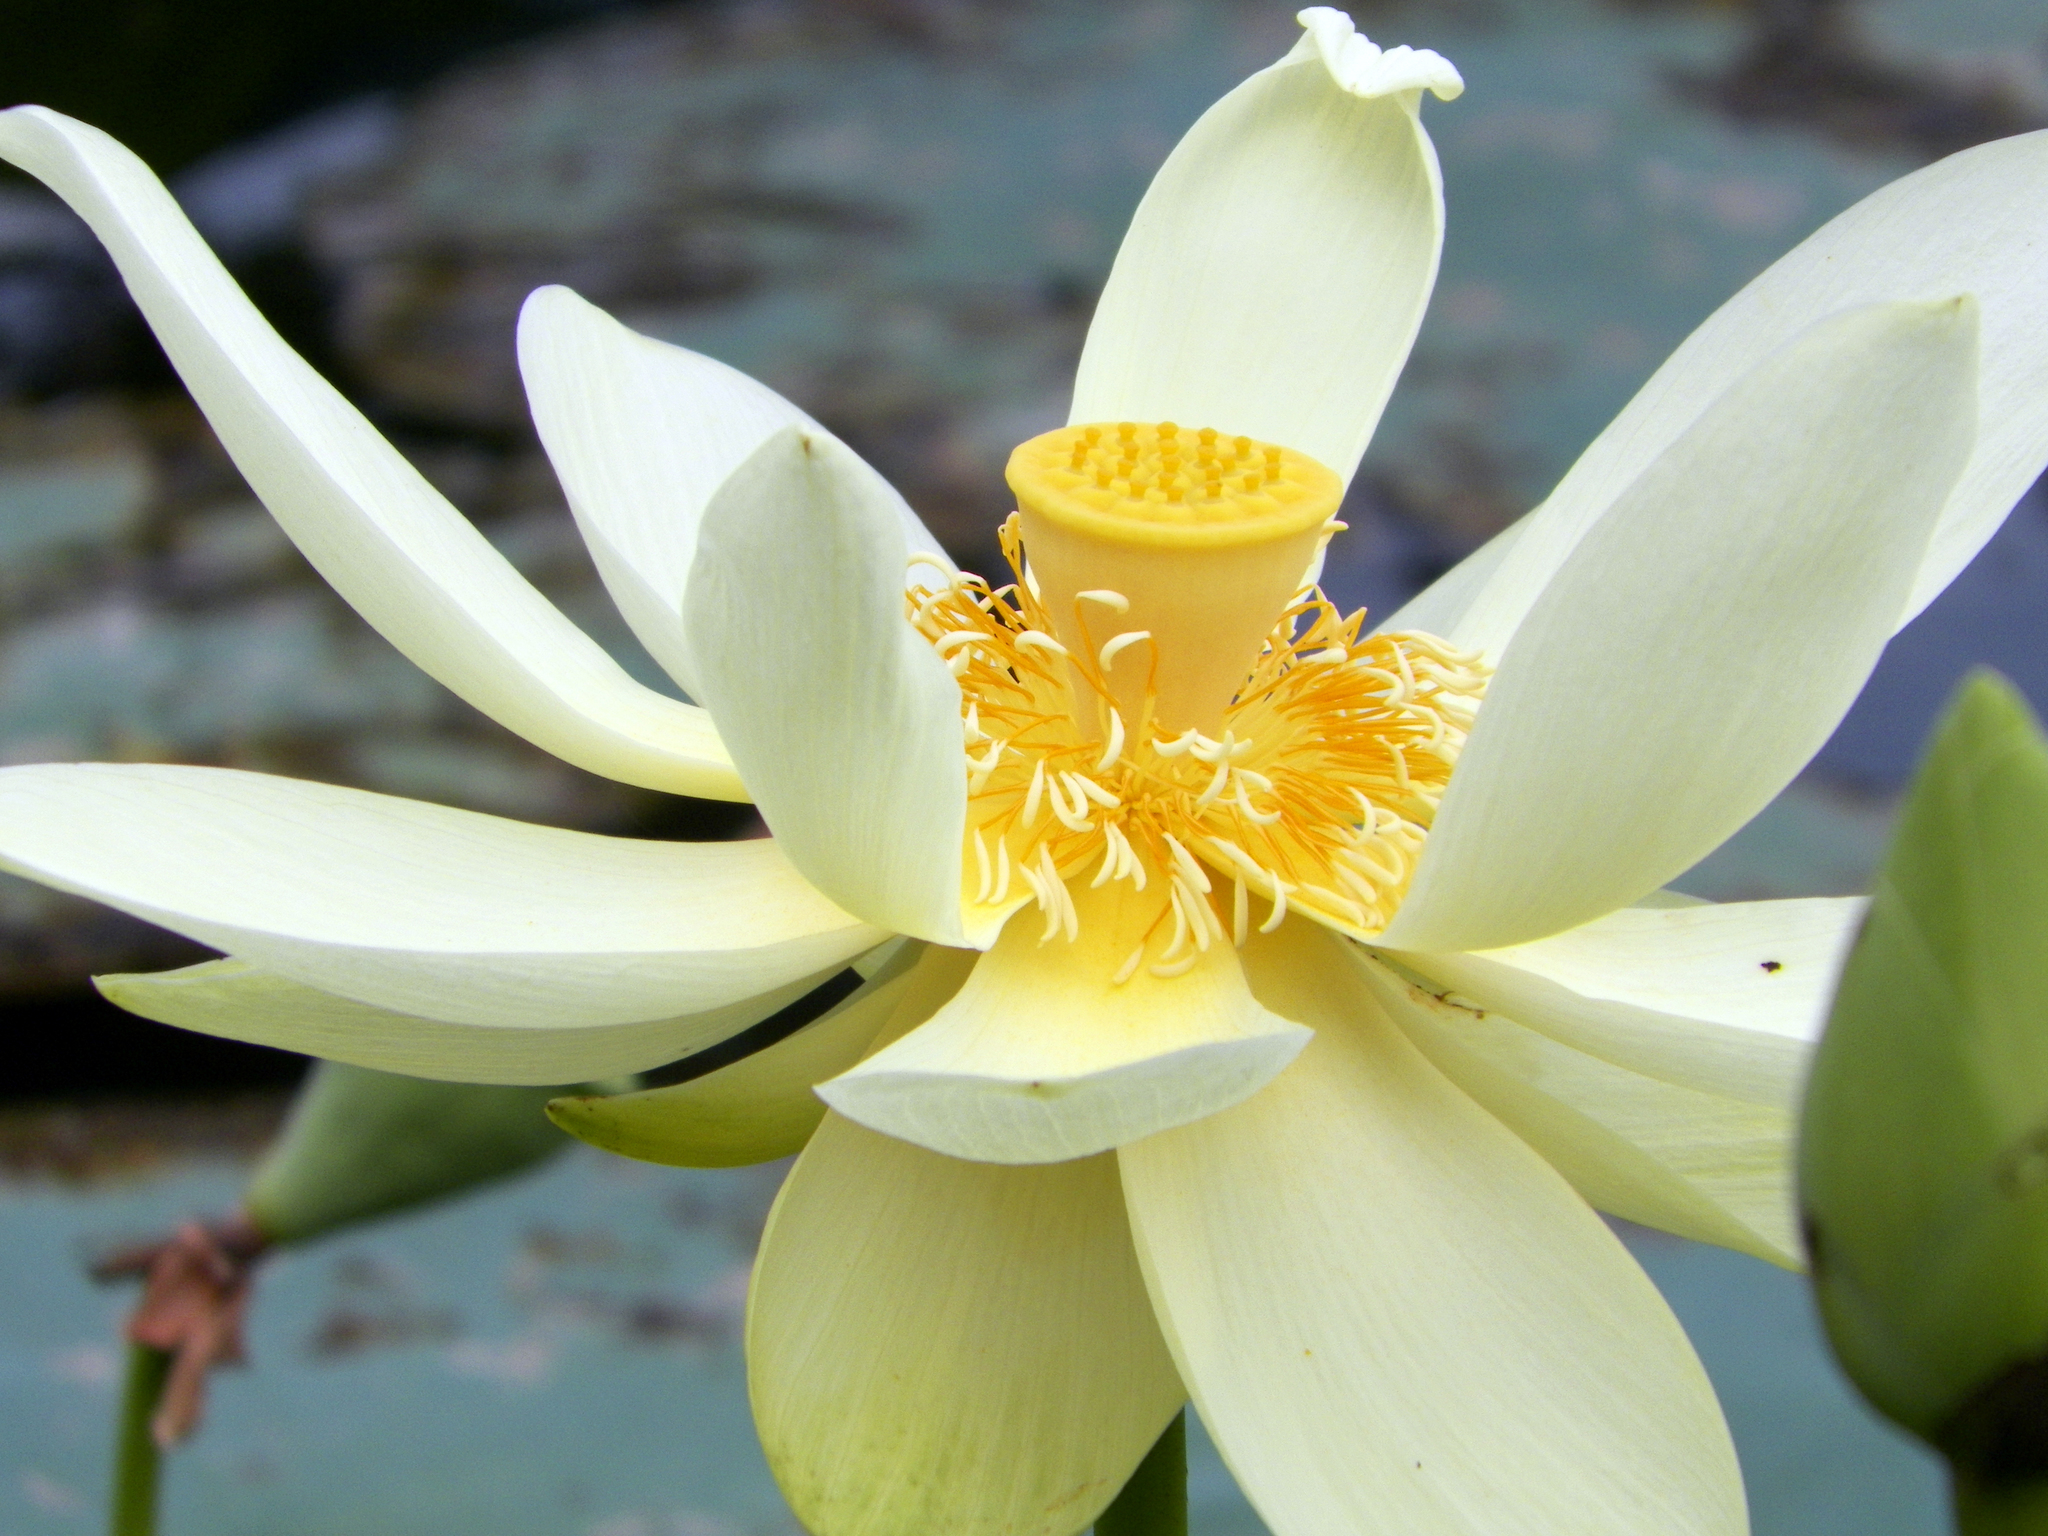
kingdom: Plantae
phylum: Tracheophyta
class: Magnoliopsida
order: Proteales
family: Nelumbonaceae
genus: Nelumbo
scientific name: Nelumbo lutea
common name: American lotus
